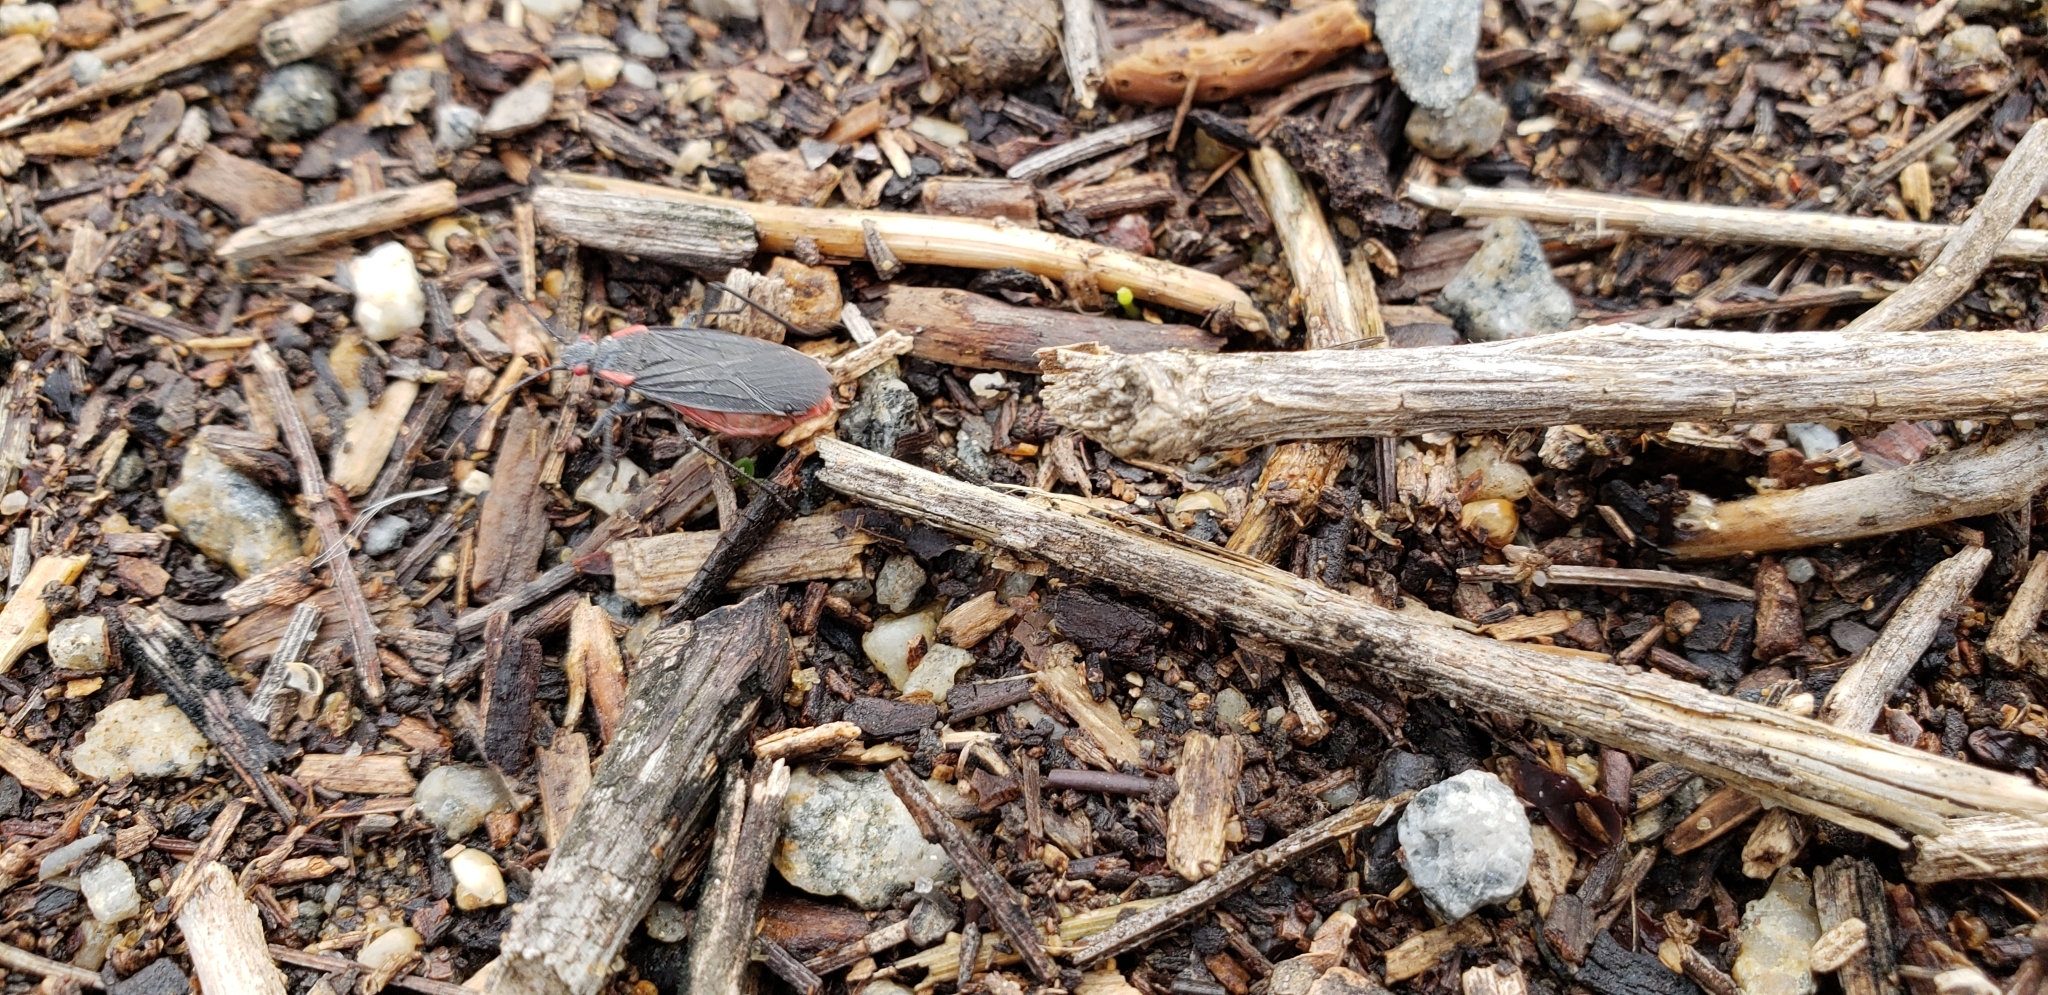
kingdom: Animalia
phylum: Arthropoda
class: Insecta
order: Hemiptera
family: Rhopalidae
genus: Jadera
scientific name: Jadera haematoloma
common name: Red-shouldered bug
